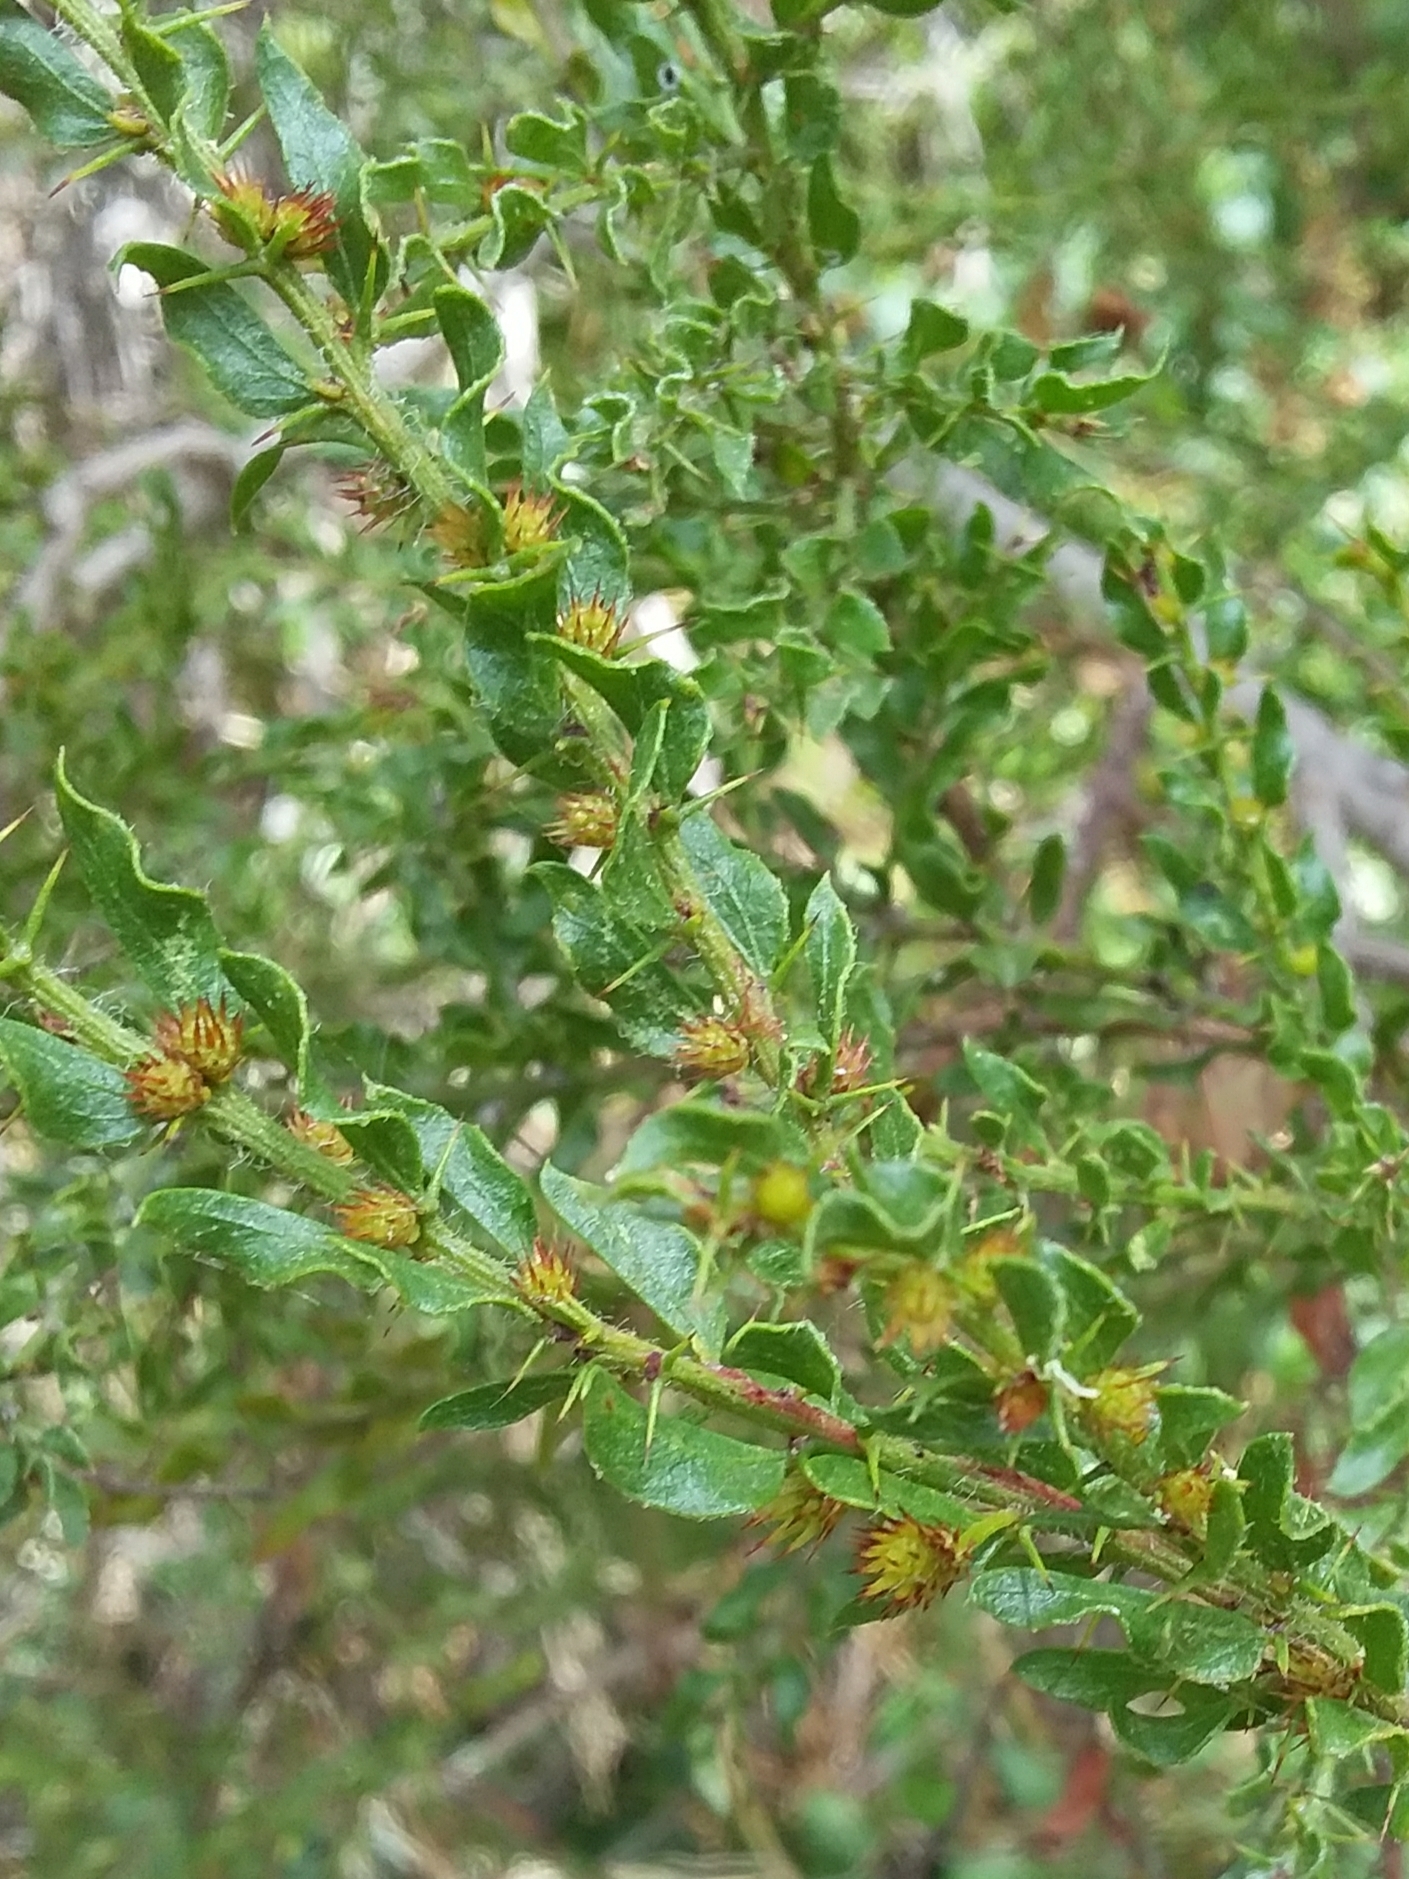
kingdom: Plantae
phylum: Tracheophyta
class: Magnoliopsida
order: Fabales
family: Fabaceae
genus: Acacia
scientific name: Acacia paradoxa
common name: Paradox acacia
